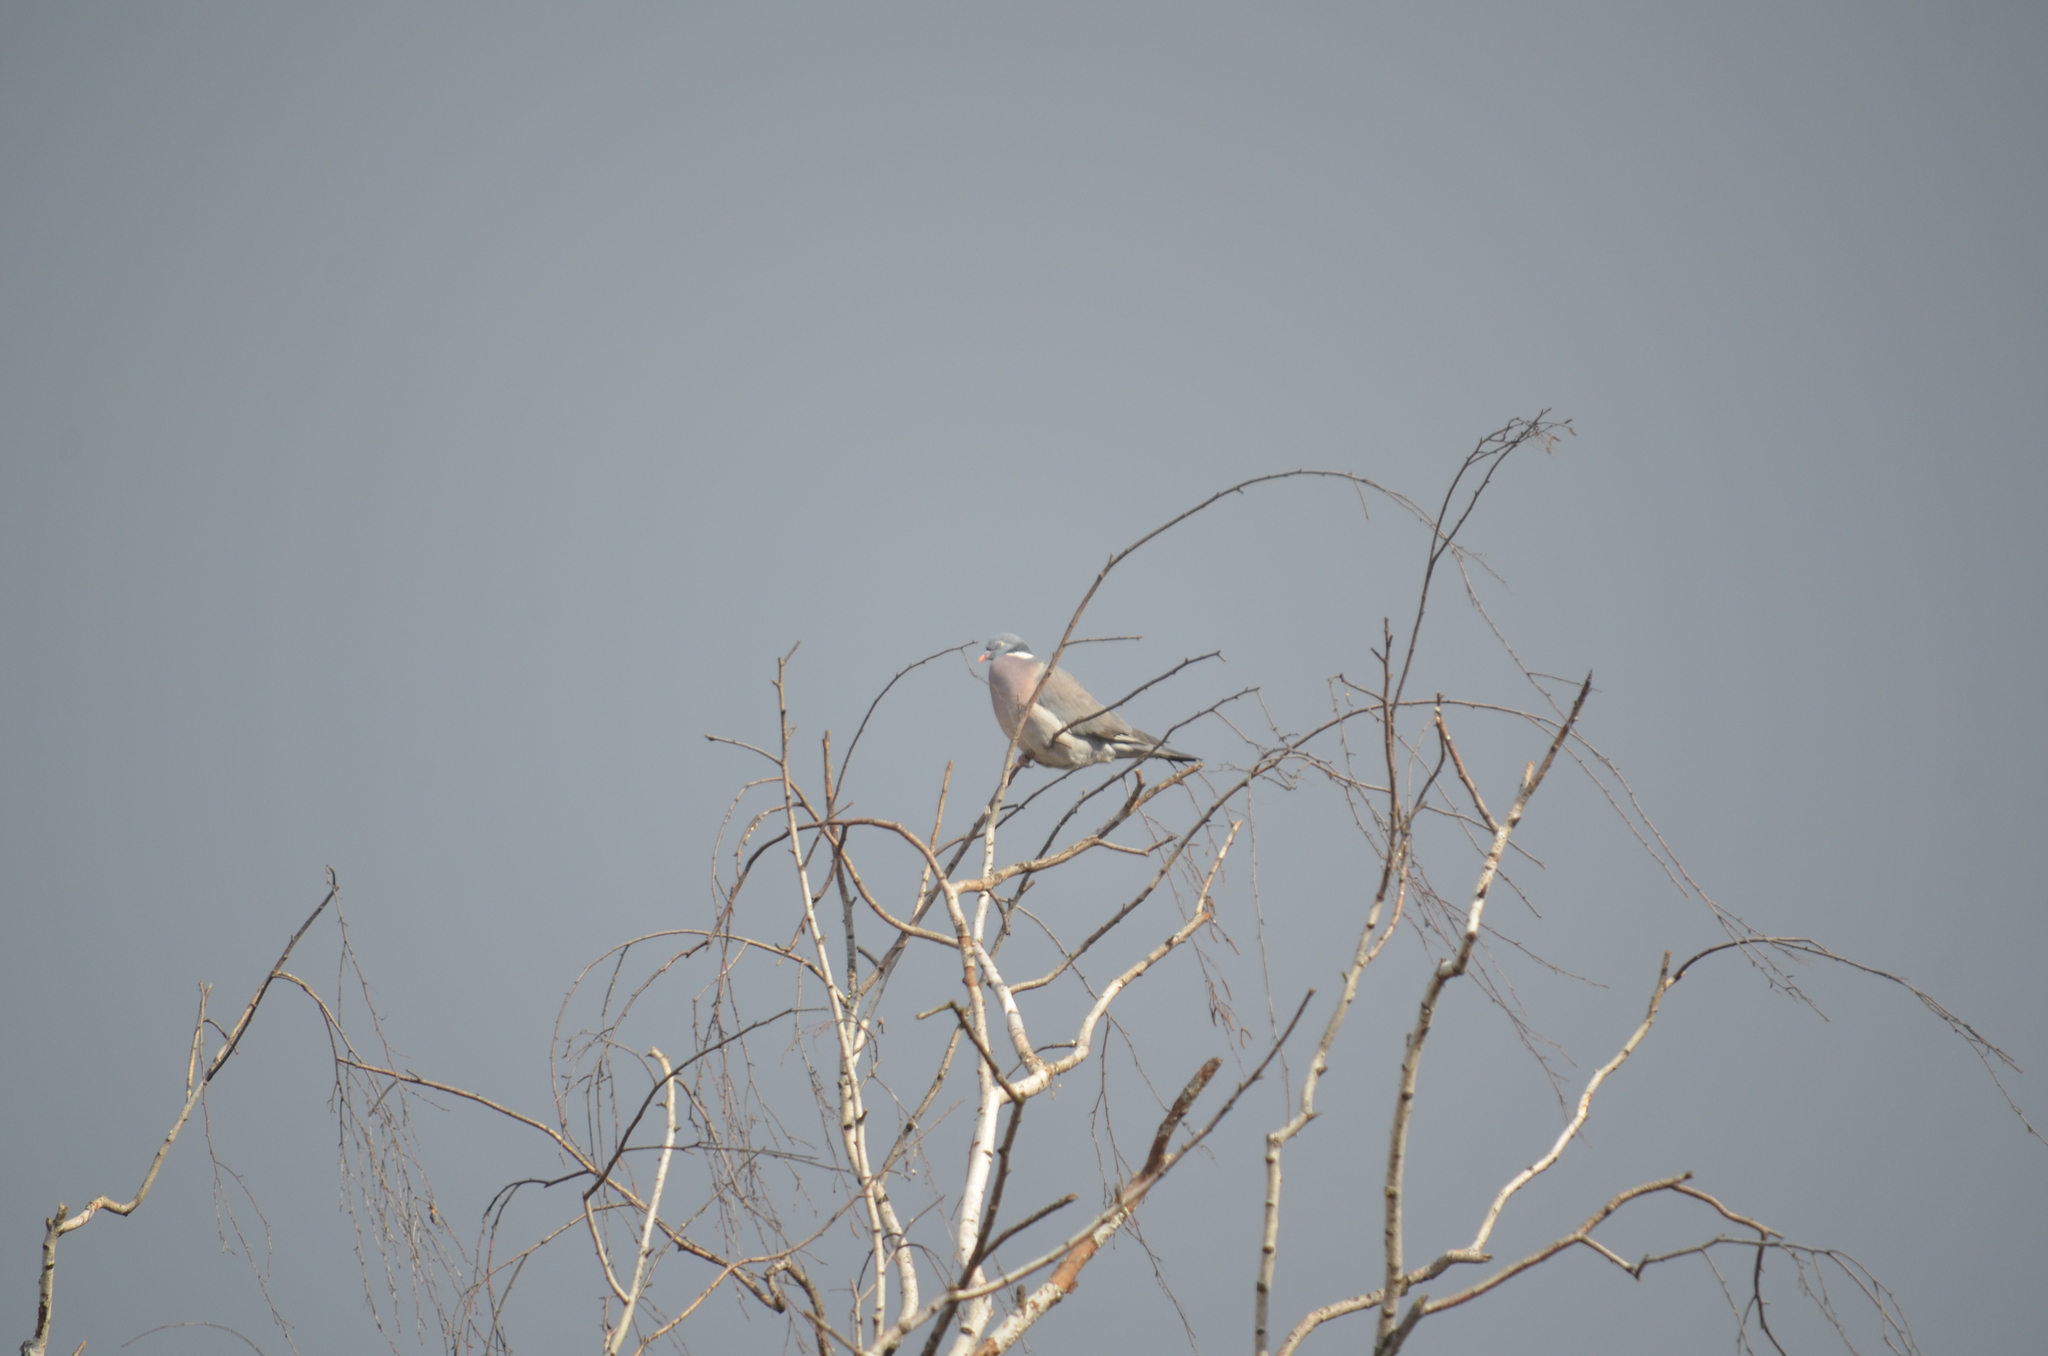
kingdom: Animalia
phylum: Chordata
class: Aves
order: Columbiformes
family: Columbidae
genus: Columba
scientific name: Columba palumbus
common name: Common wood pigeon
